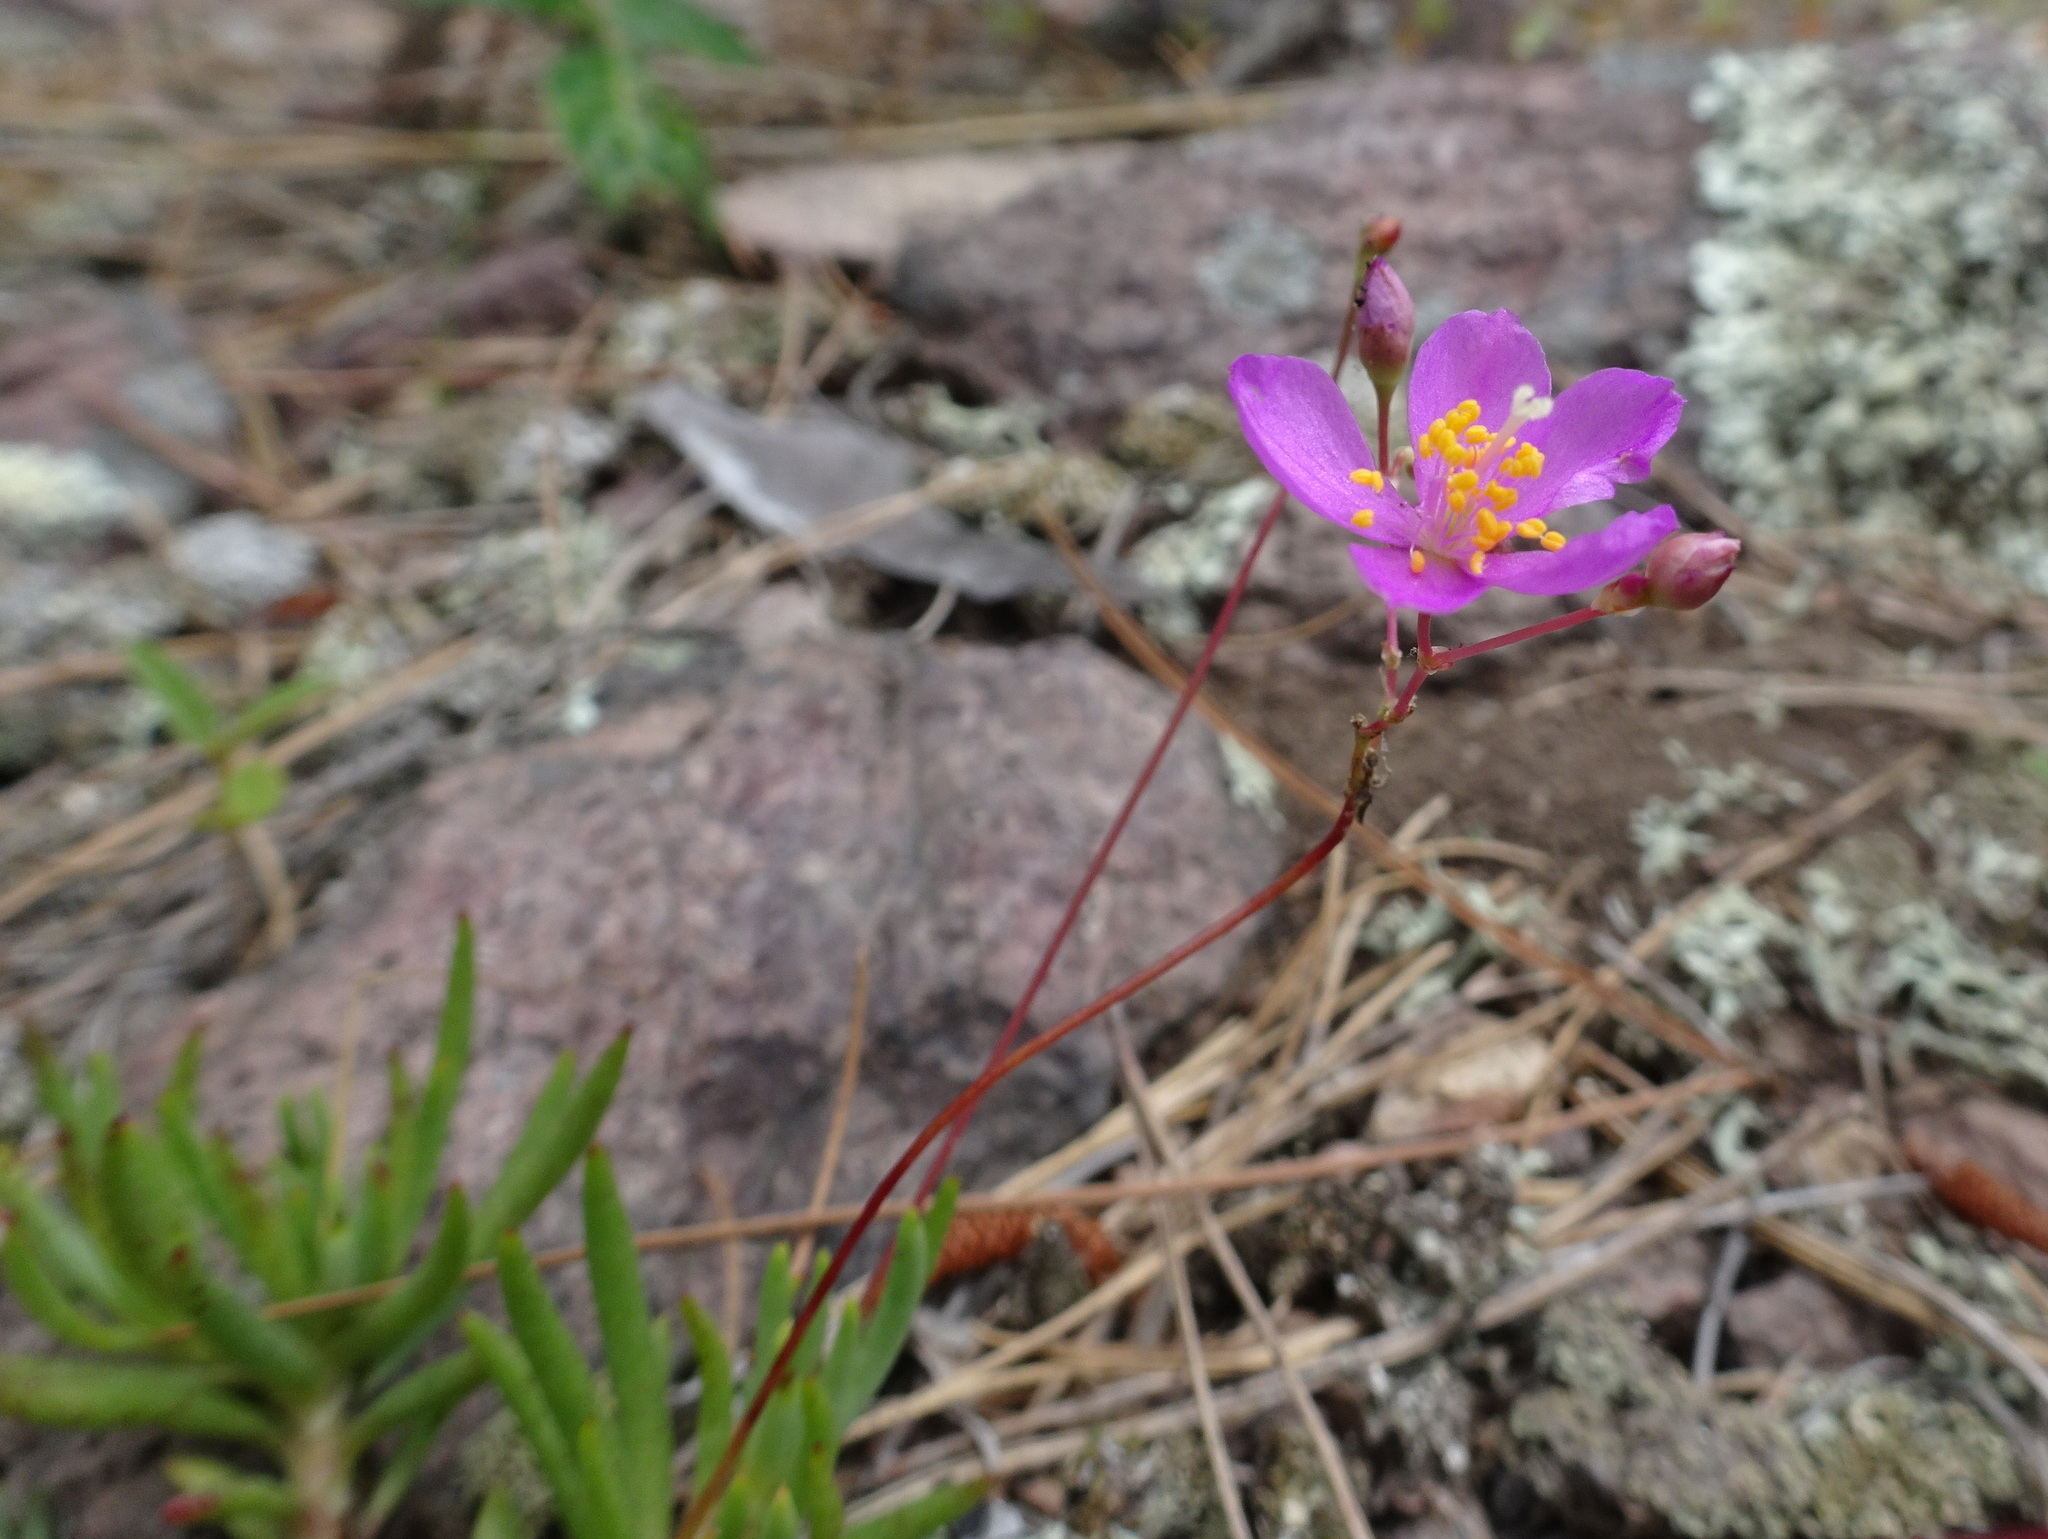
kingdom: Plantae
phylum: Tracheophyta
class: Magnoliopsida
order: Caryophyllales
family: Montiaceae
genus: Phemeranthus
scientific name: Phemeranthus calycinus
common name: Largeflower fameflower
